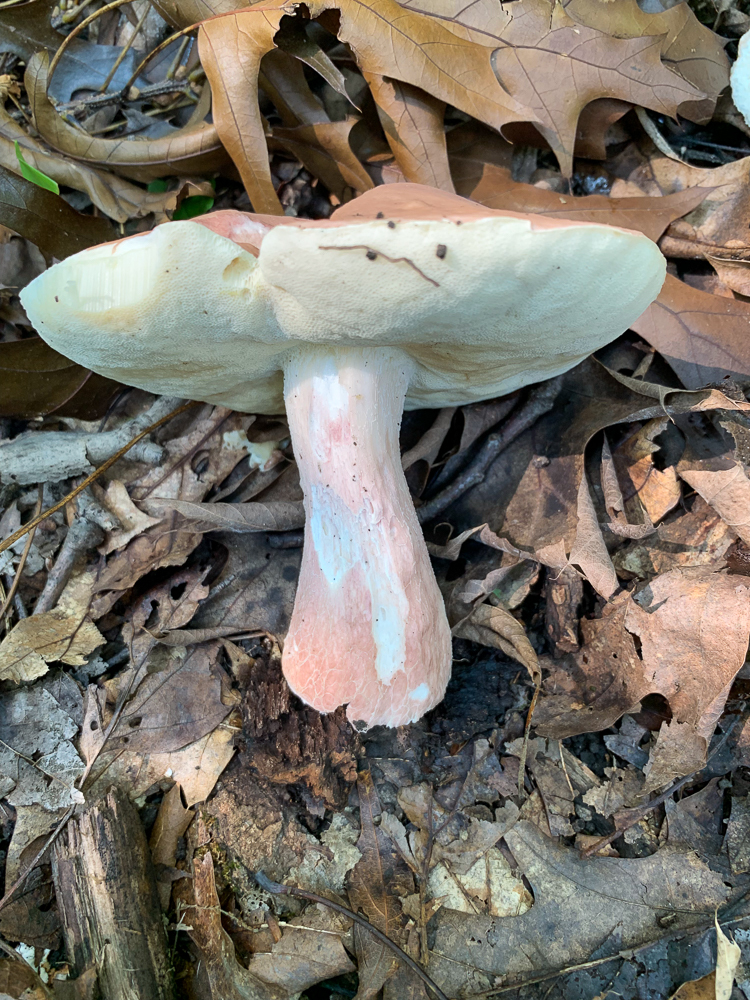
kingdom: Fungi
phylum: Basidiomycota
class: Agaricomycetes
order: Boletales
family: Boletaceae
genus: Xanthoconium
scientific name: Xanthoconium separans
